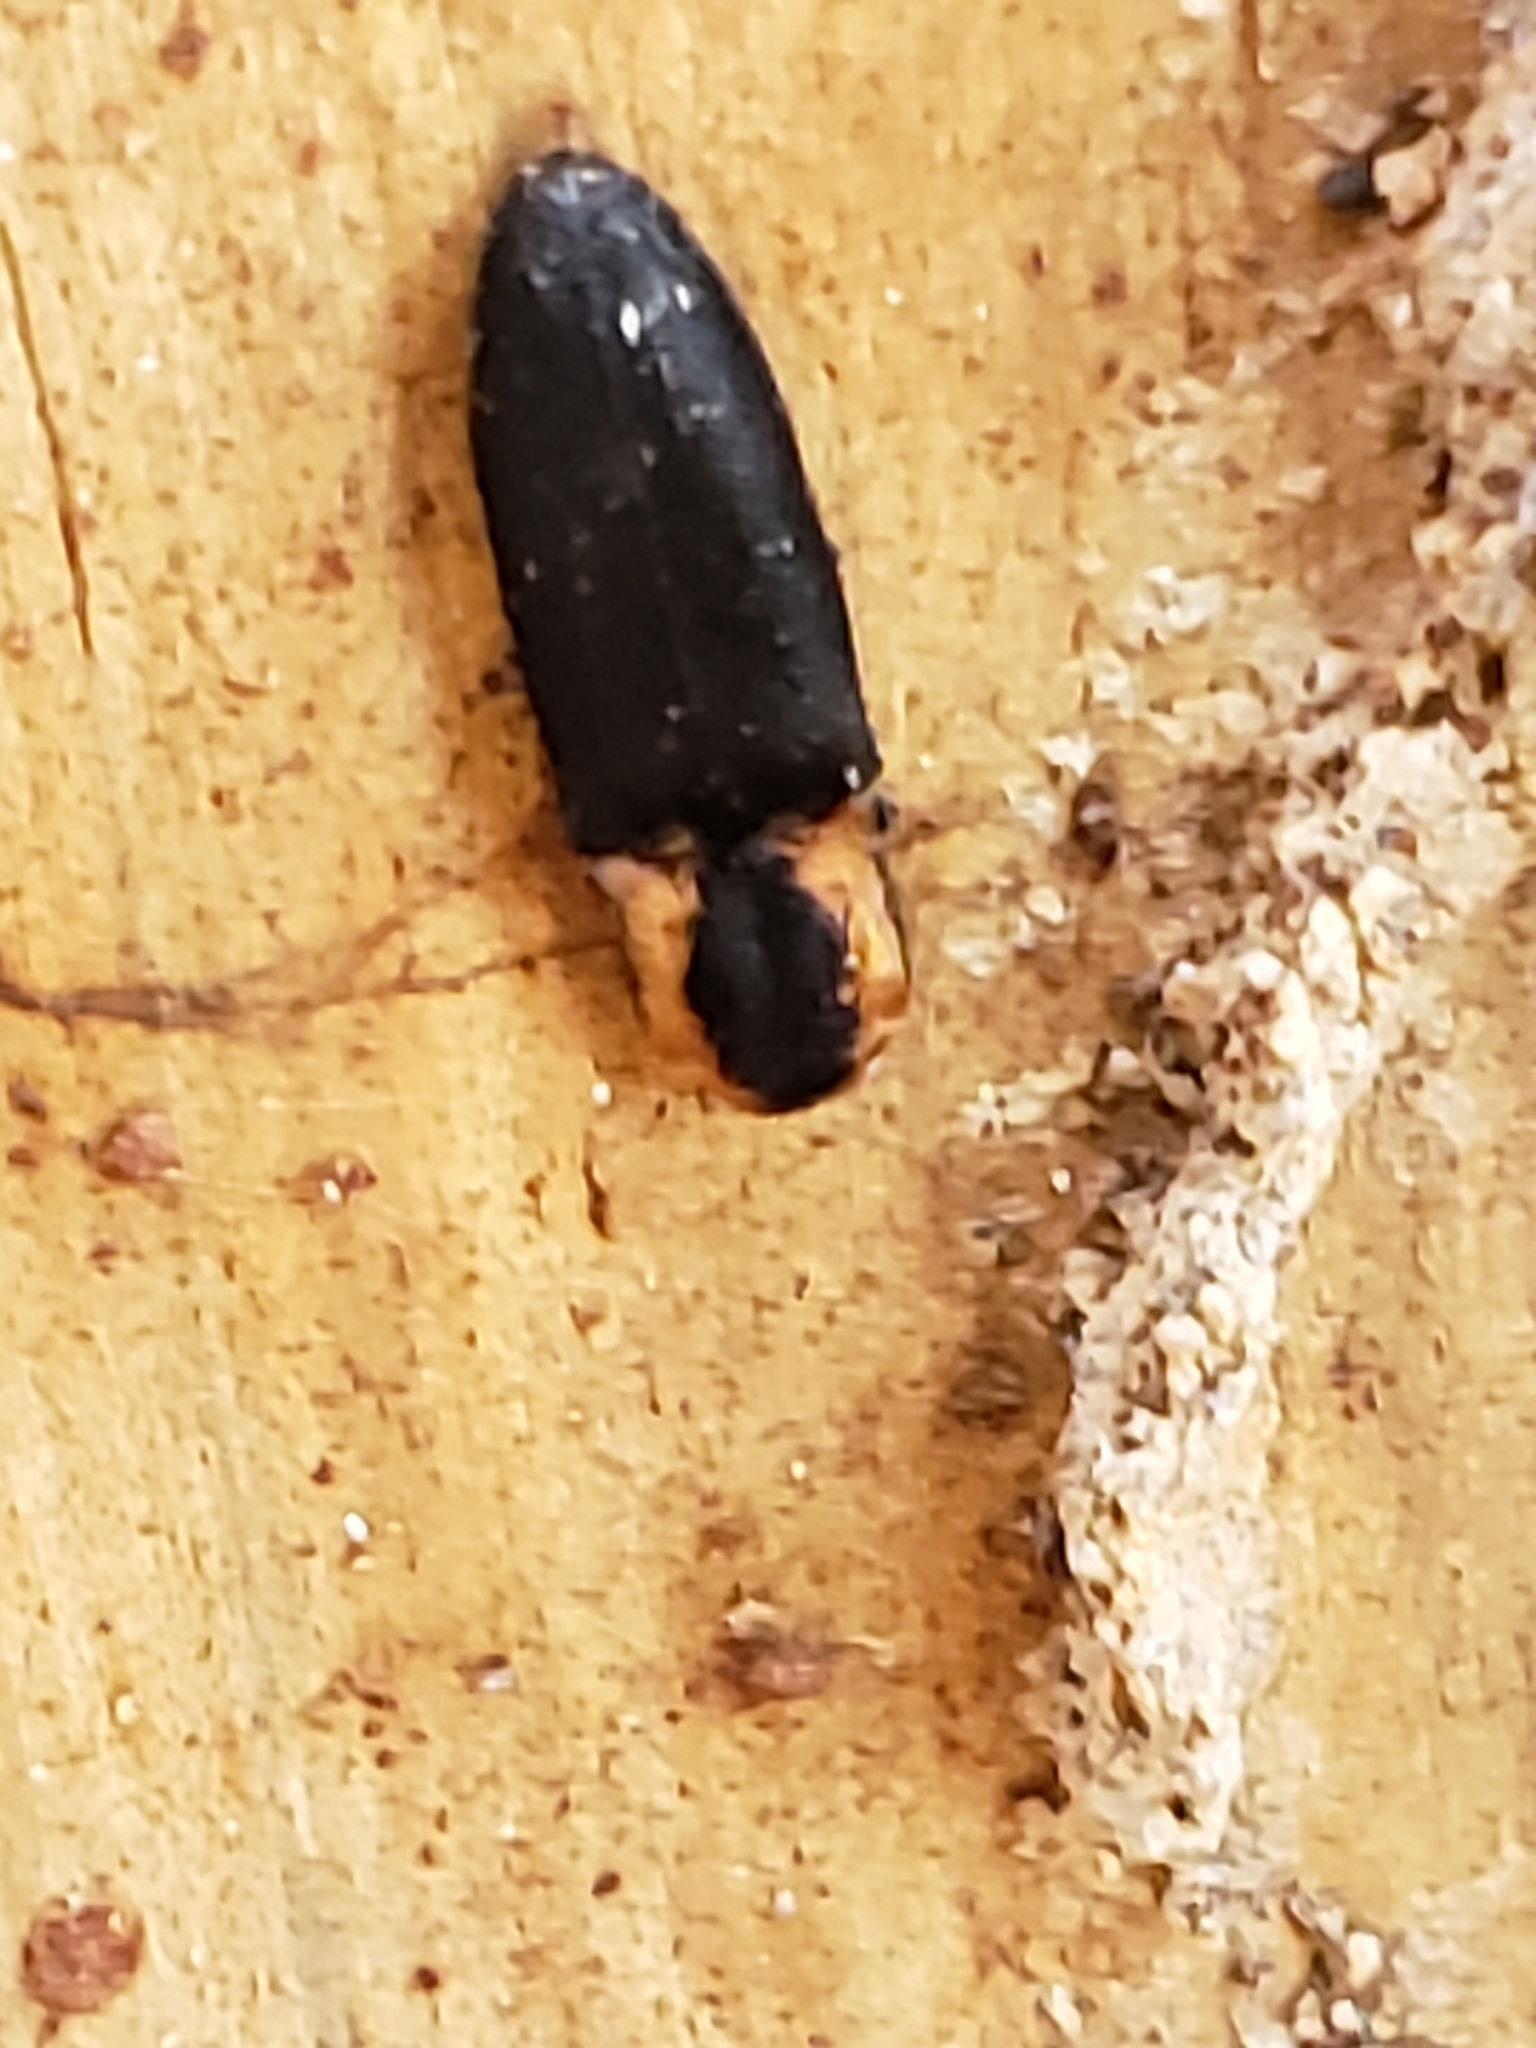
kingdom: Animalia
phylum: Arthropoda
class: Insecta
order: Coleoptera
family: Elateridae
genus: Lacon
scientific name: Lacon discoideus
